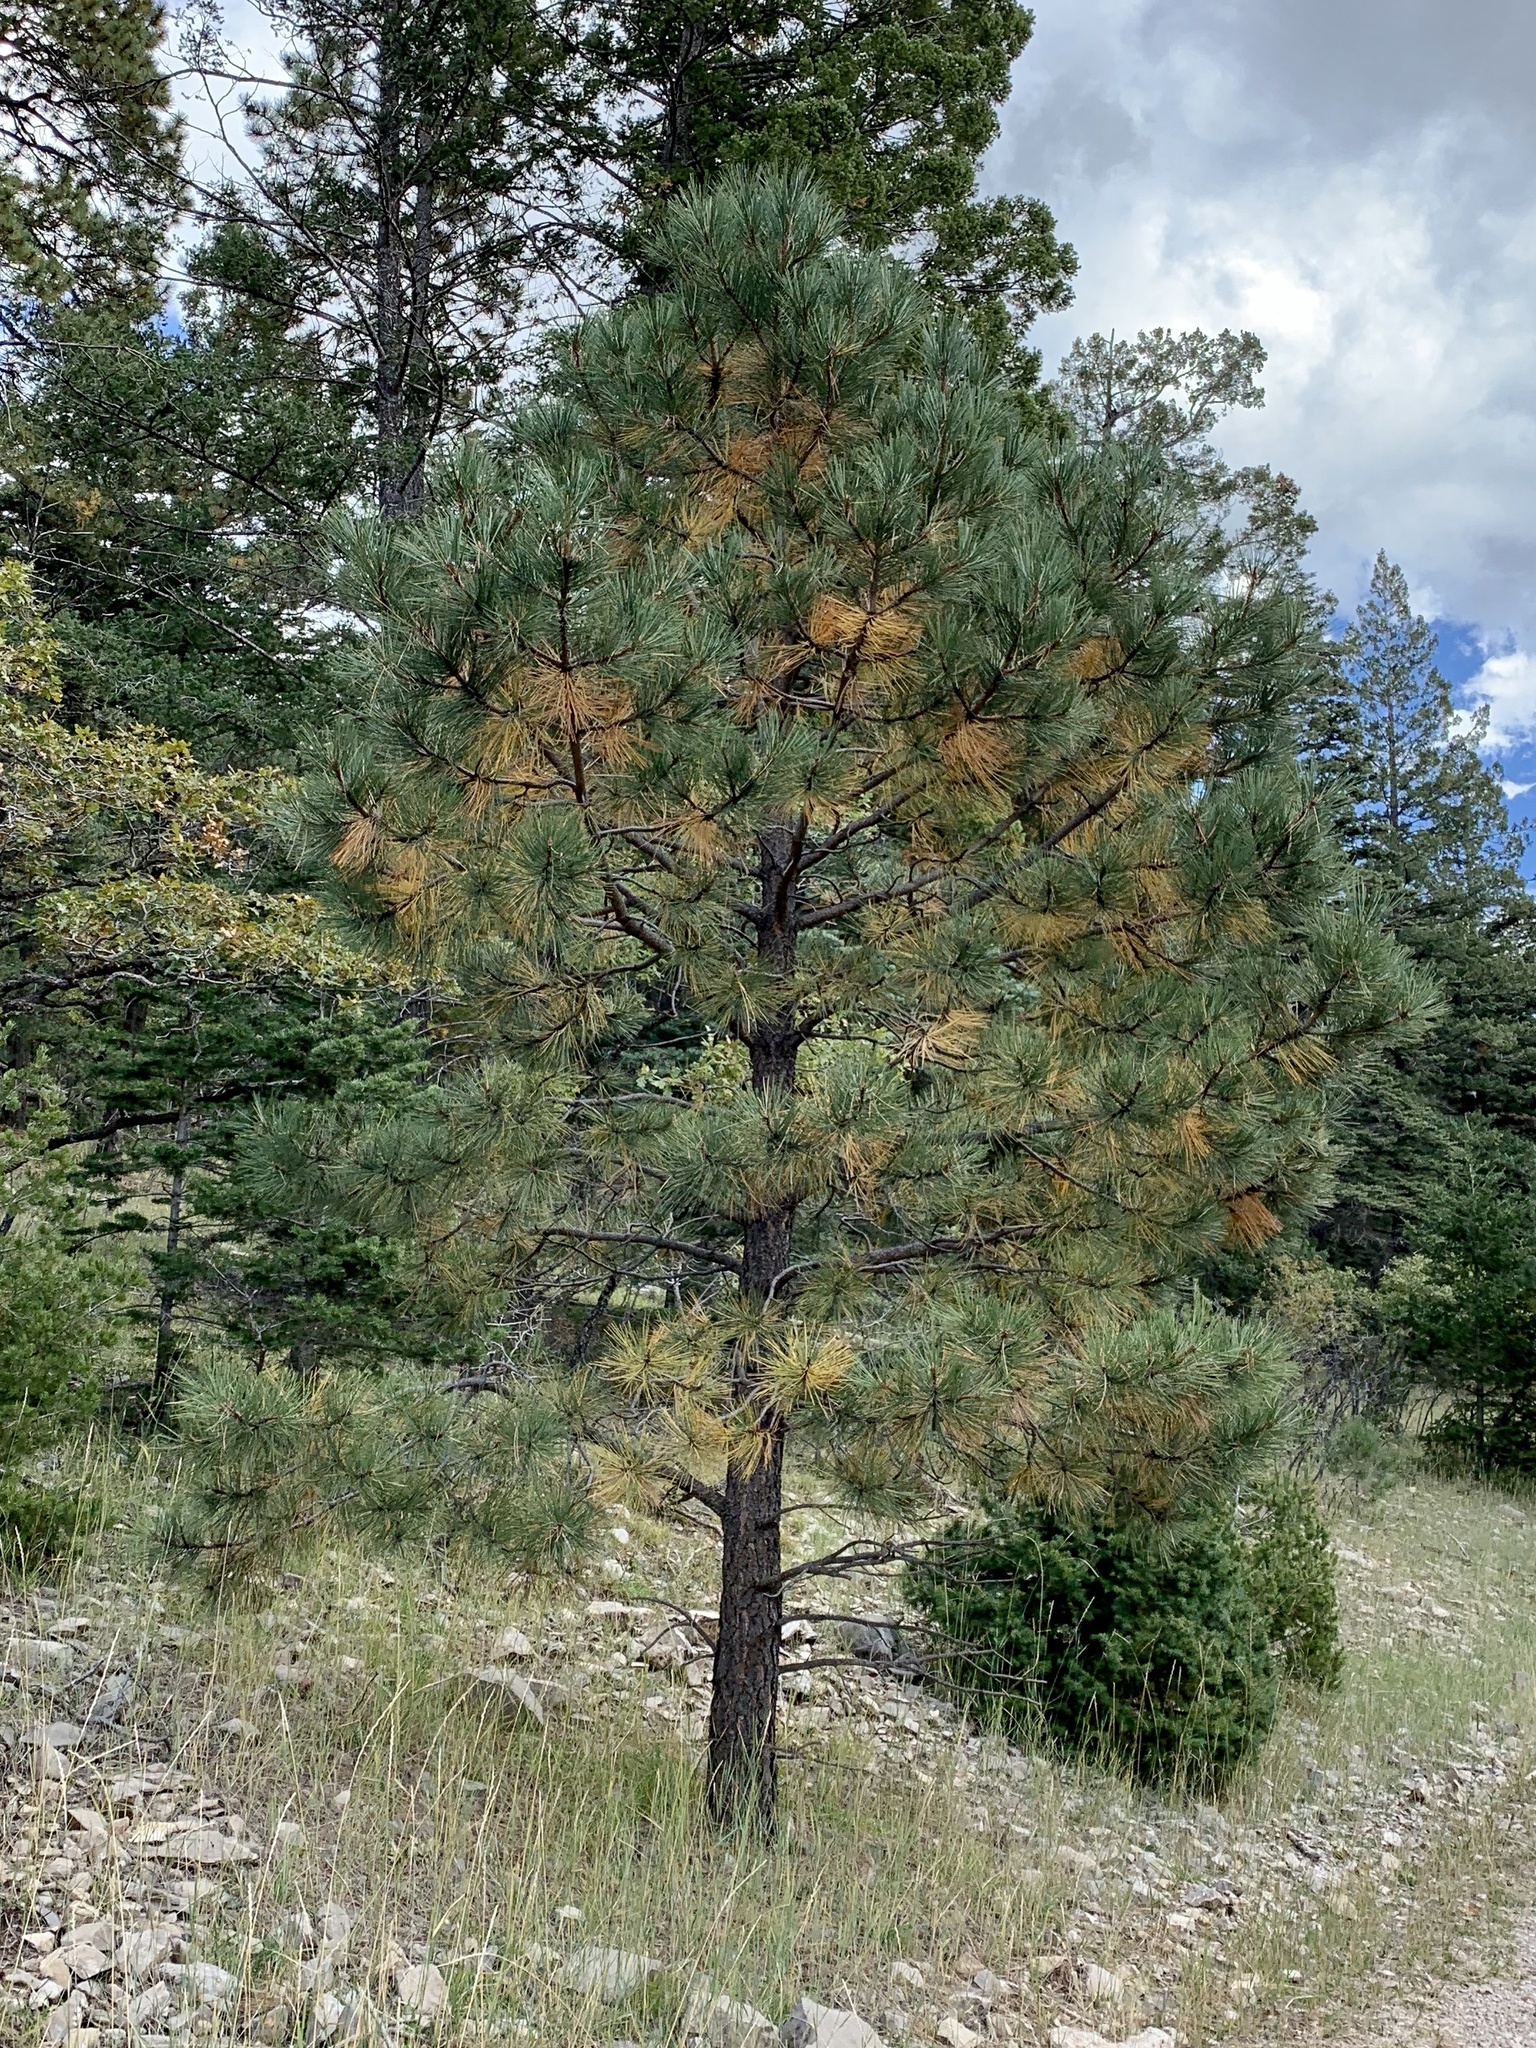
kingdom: Plantae
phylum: Tracheophyta
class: Pinopsida
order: Pinales
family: Pinaceae
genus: Pinus
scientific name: Pinus ponderosa
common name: Western yellow-pine
